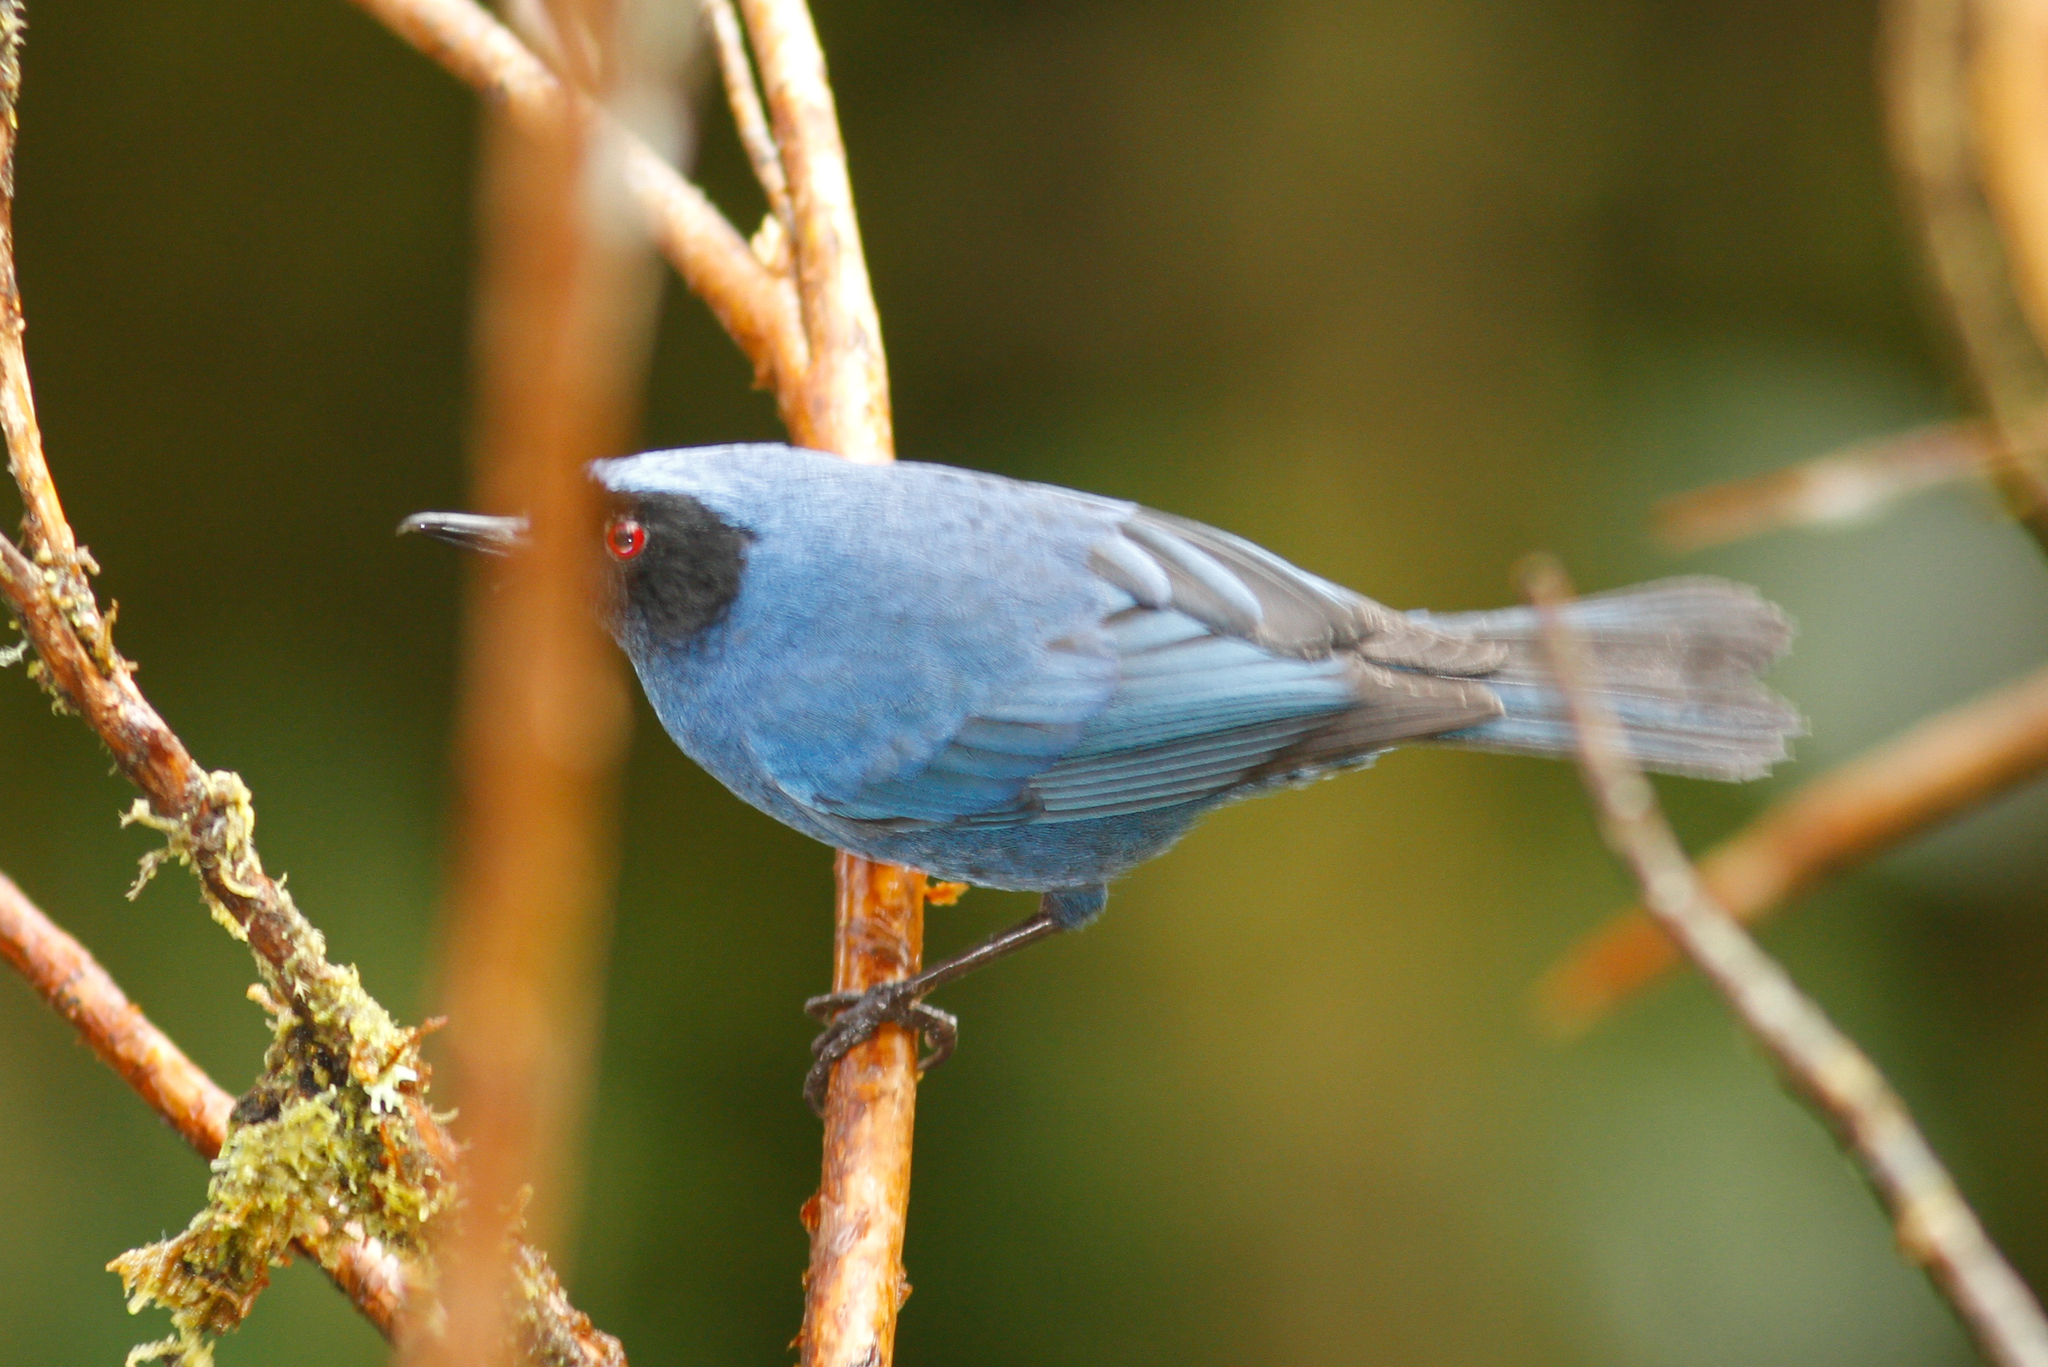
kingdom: Animalia
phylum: Chordata
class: Aves
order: Passeriformes
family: Thraupidae
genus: Diglossa
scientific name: Diglossa cyanea
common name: Masked flowerpiercer
